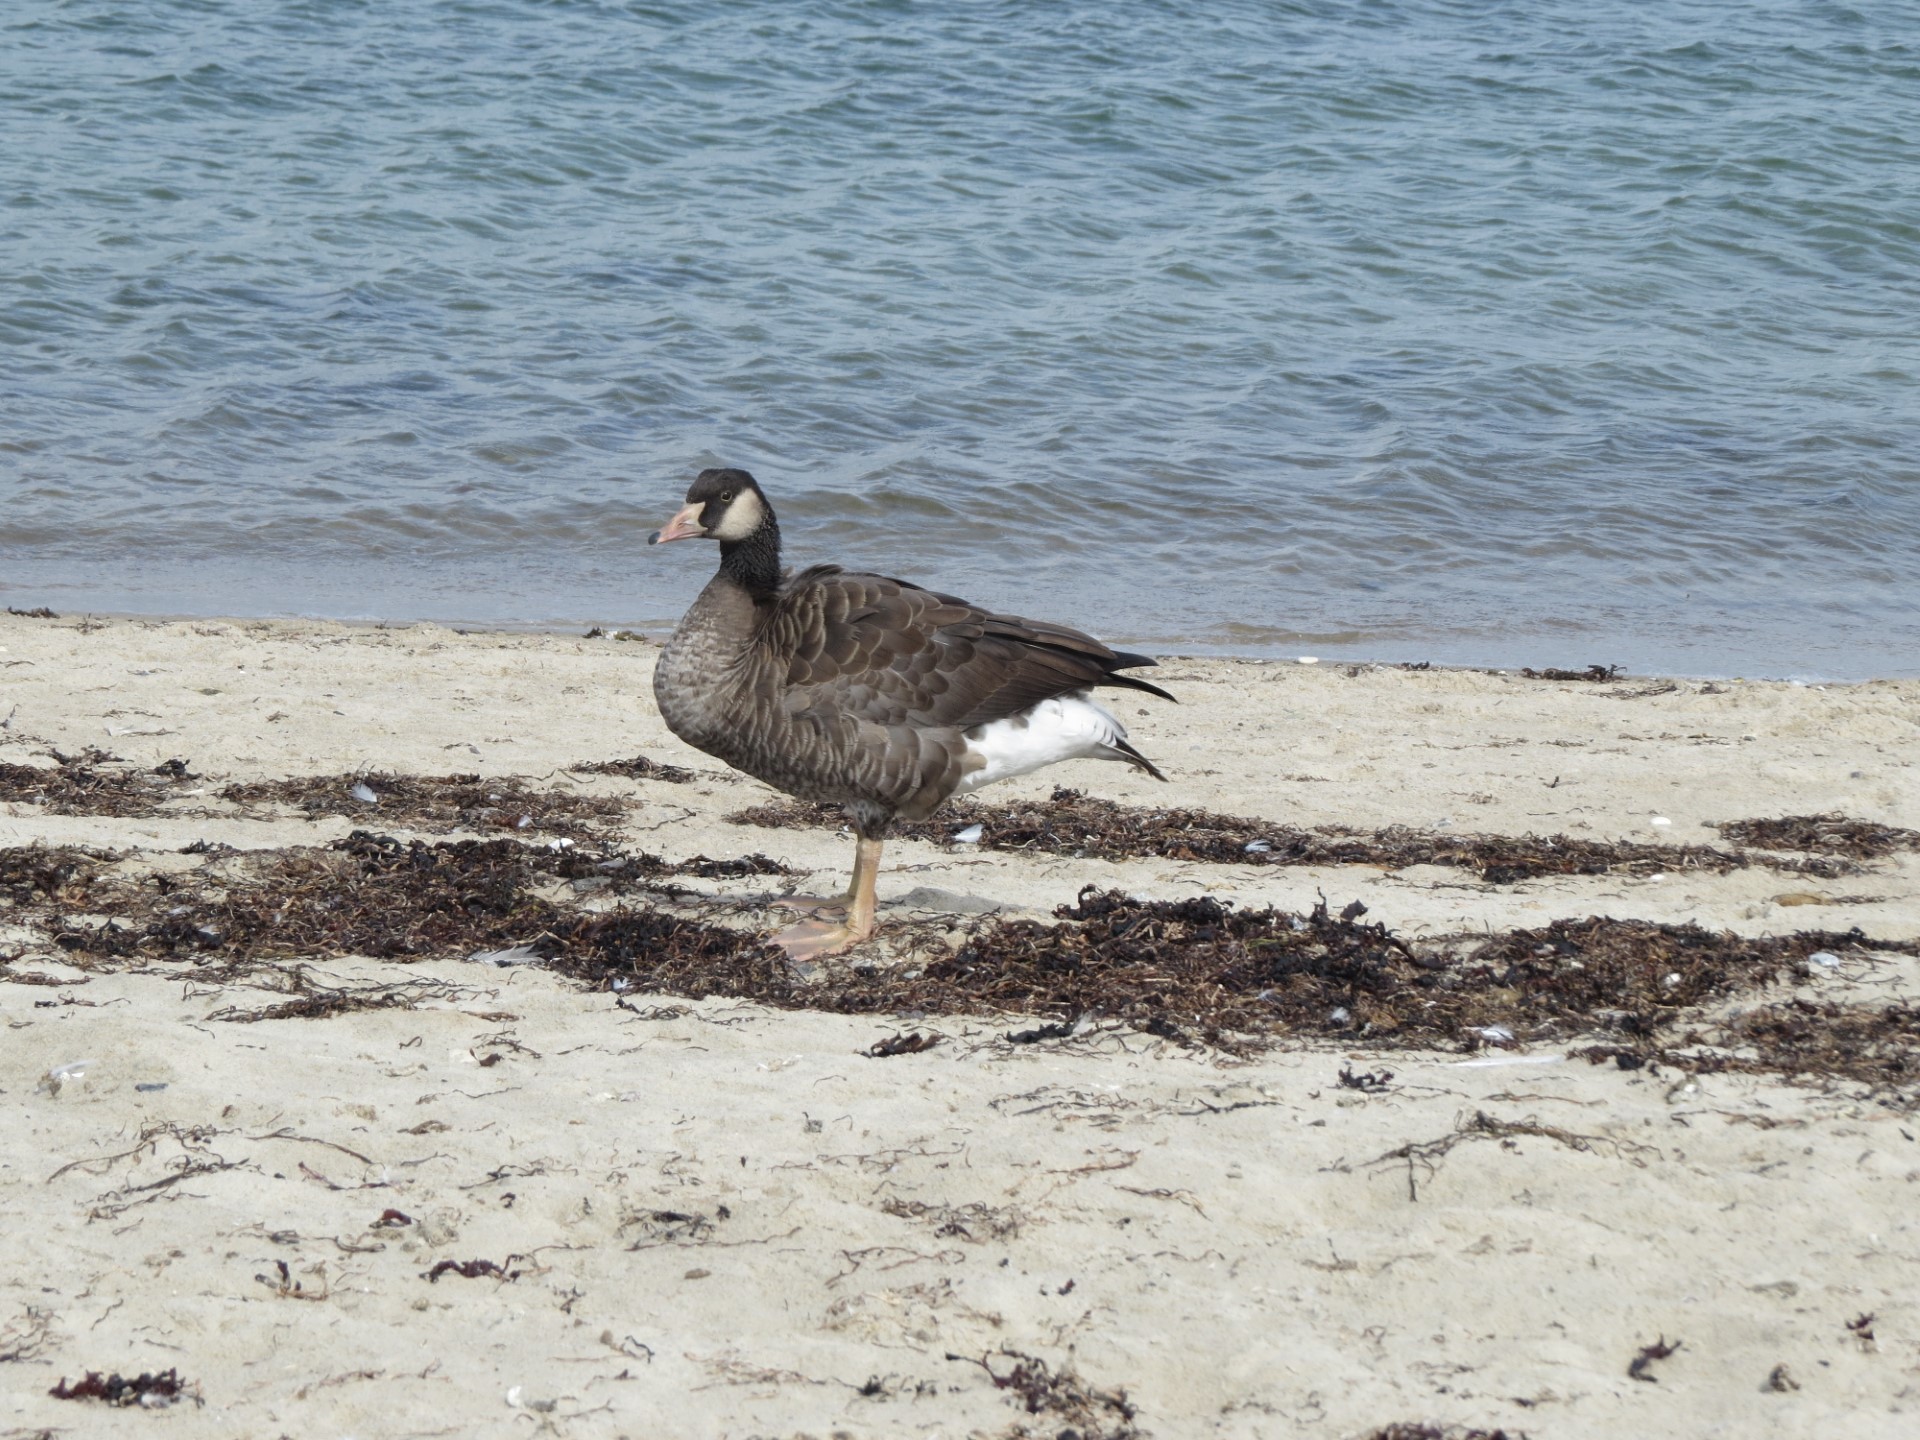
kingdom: Animalia
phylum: Chordata
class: Aves
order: Anseriformes
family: Anatidae
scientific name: Anatidae
